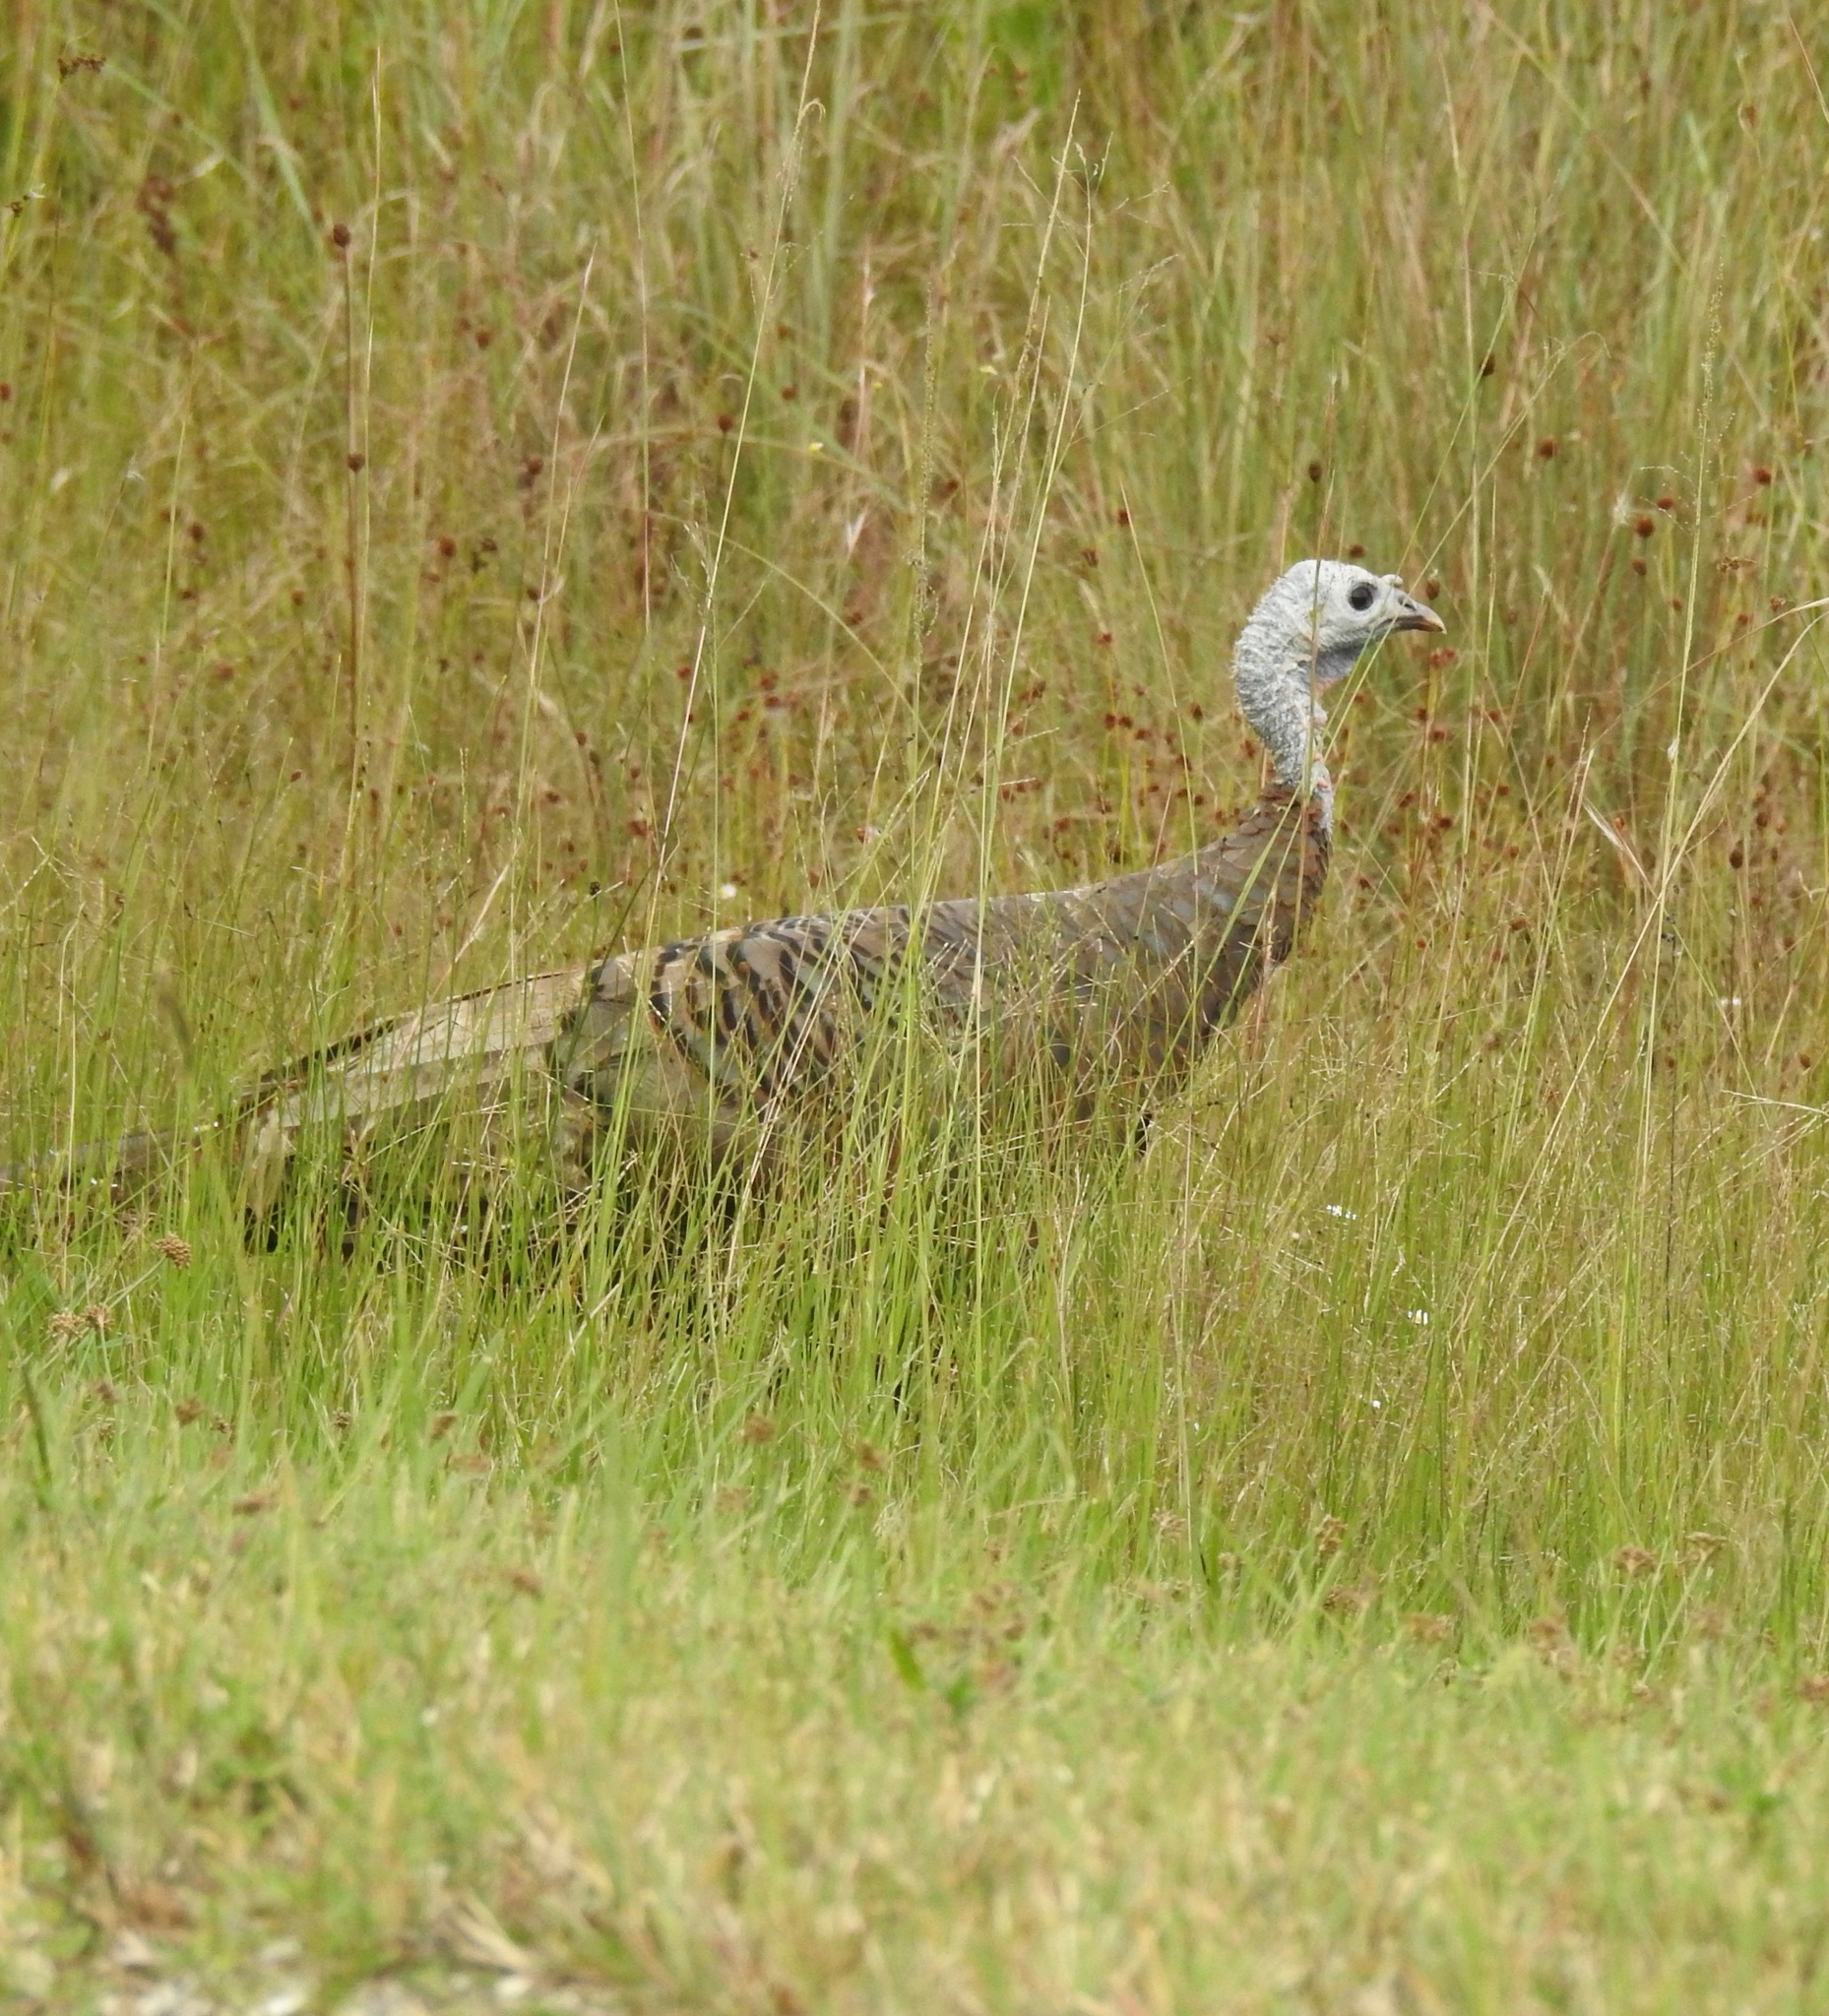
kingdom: Animalia
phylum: Chordata
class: Aves
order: Galliformes
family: Phasianidae
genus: Meleagris
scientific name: Meleagris gallopavo
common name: Wild turkey
